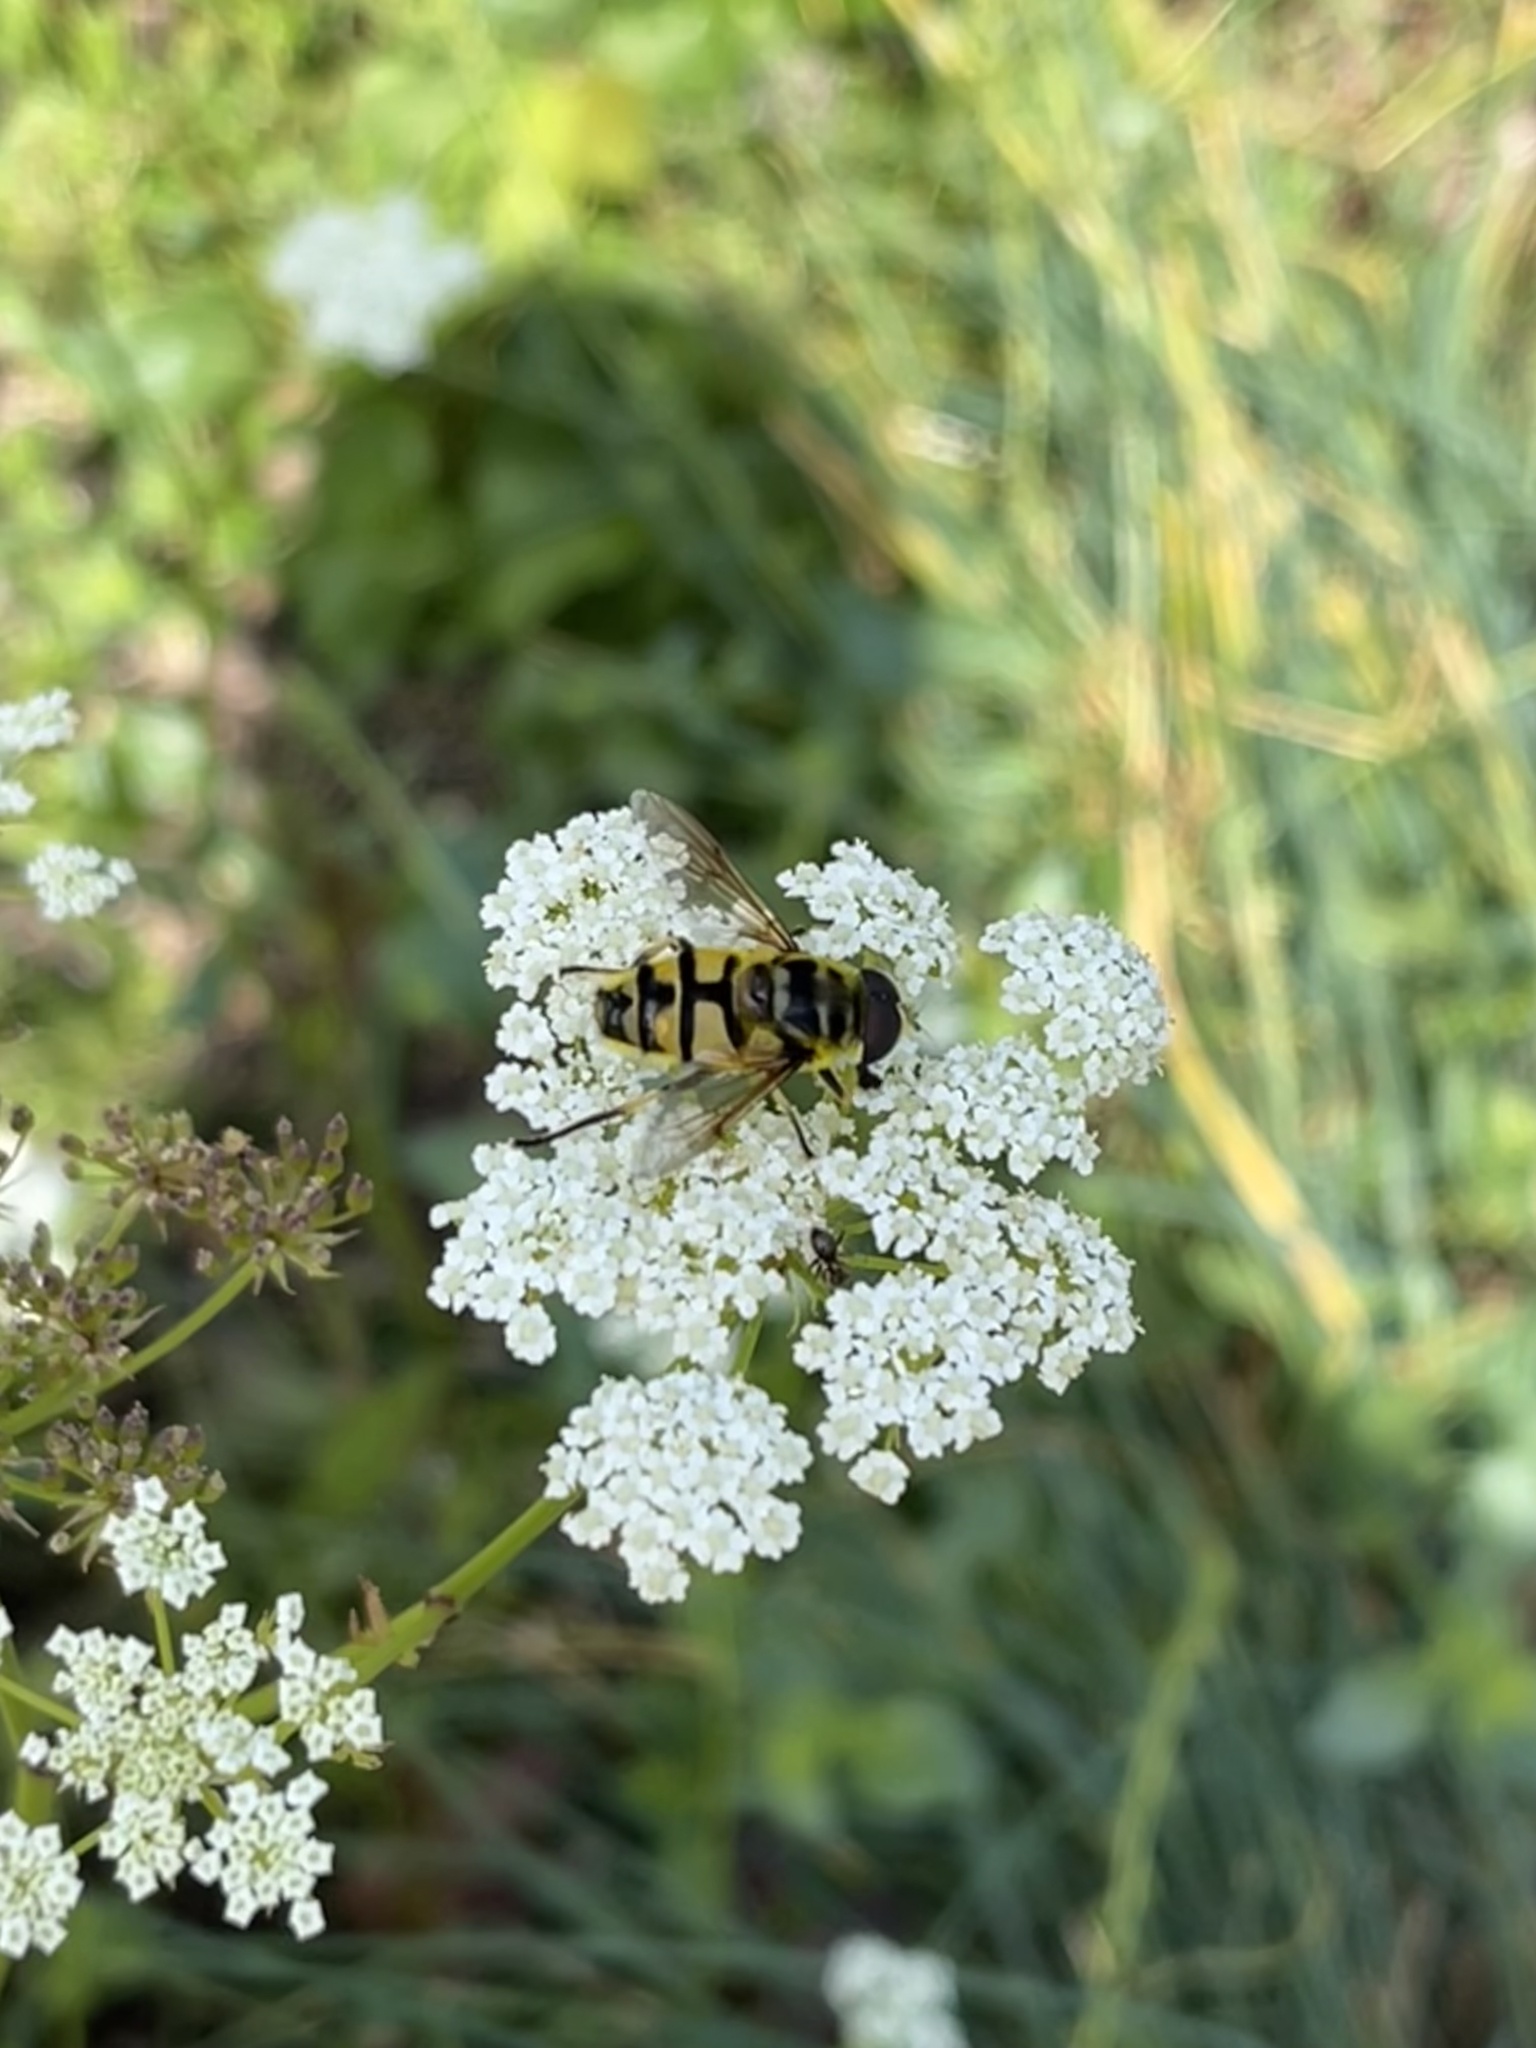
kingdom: Animalia
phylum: Arthropoda
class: Insecta
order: Diptera
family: Syrphidae
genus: Myathropa
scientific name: Myathropa florea
